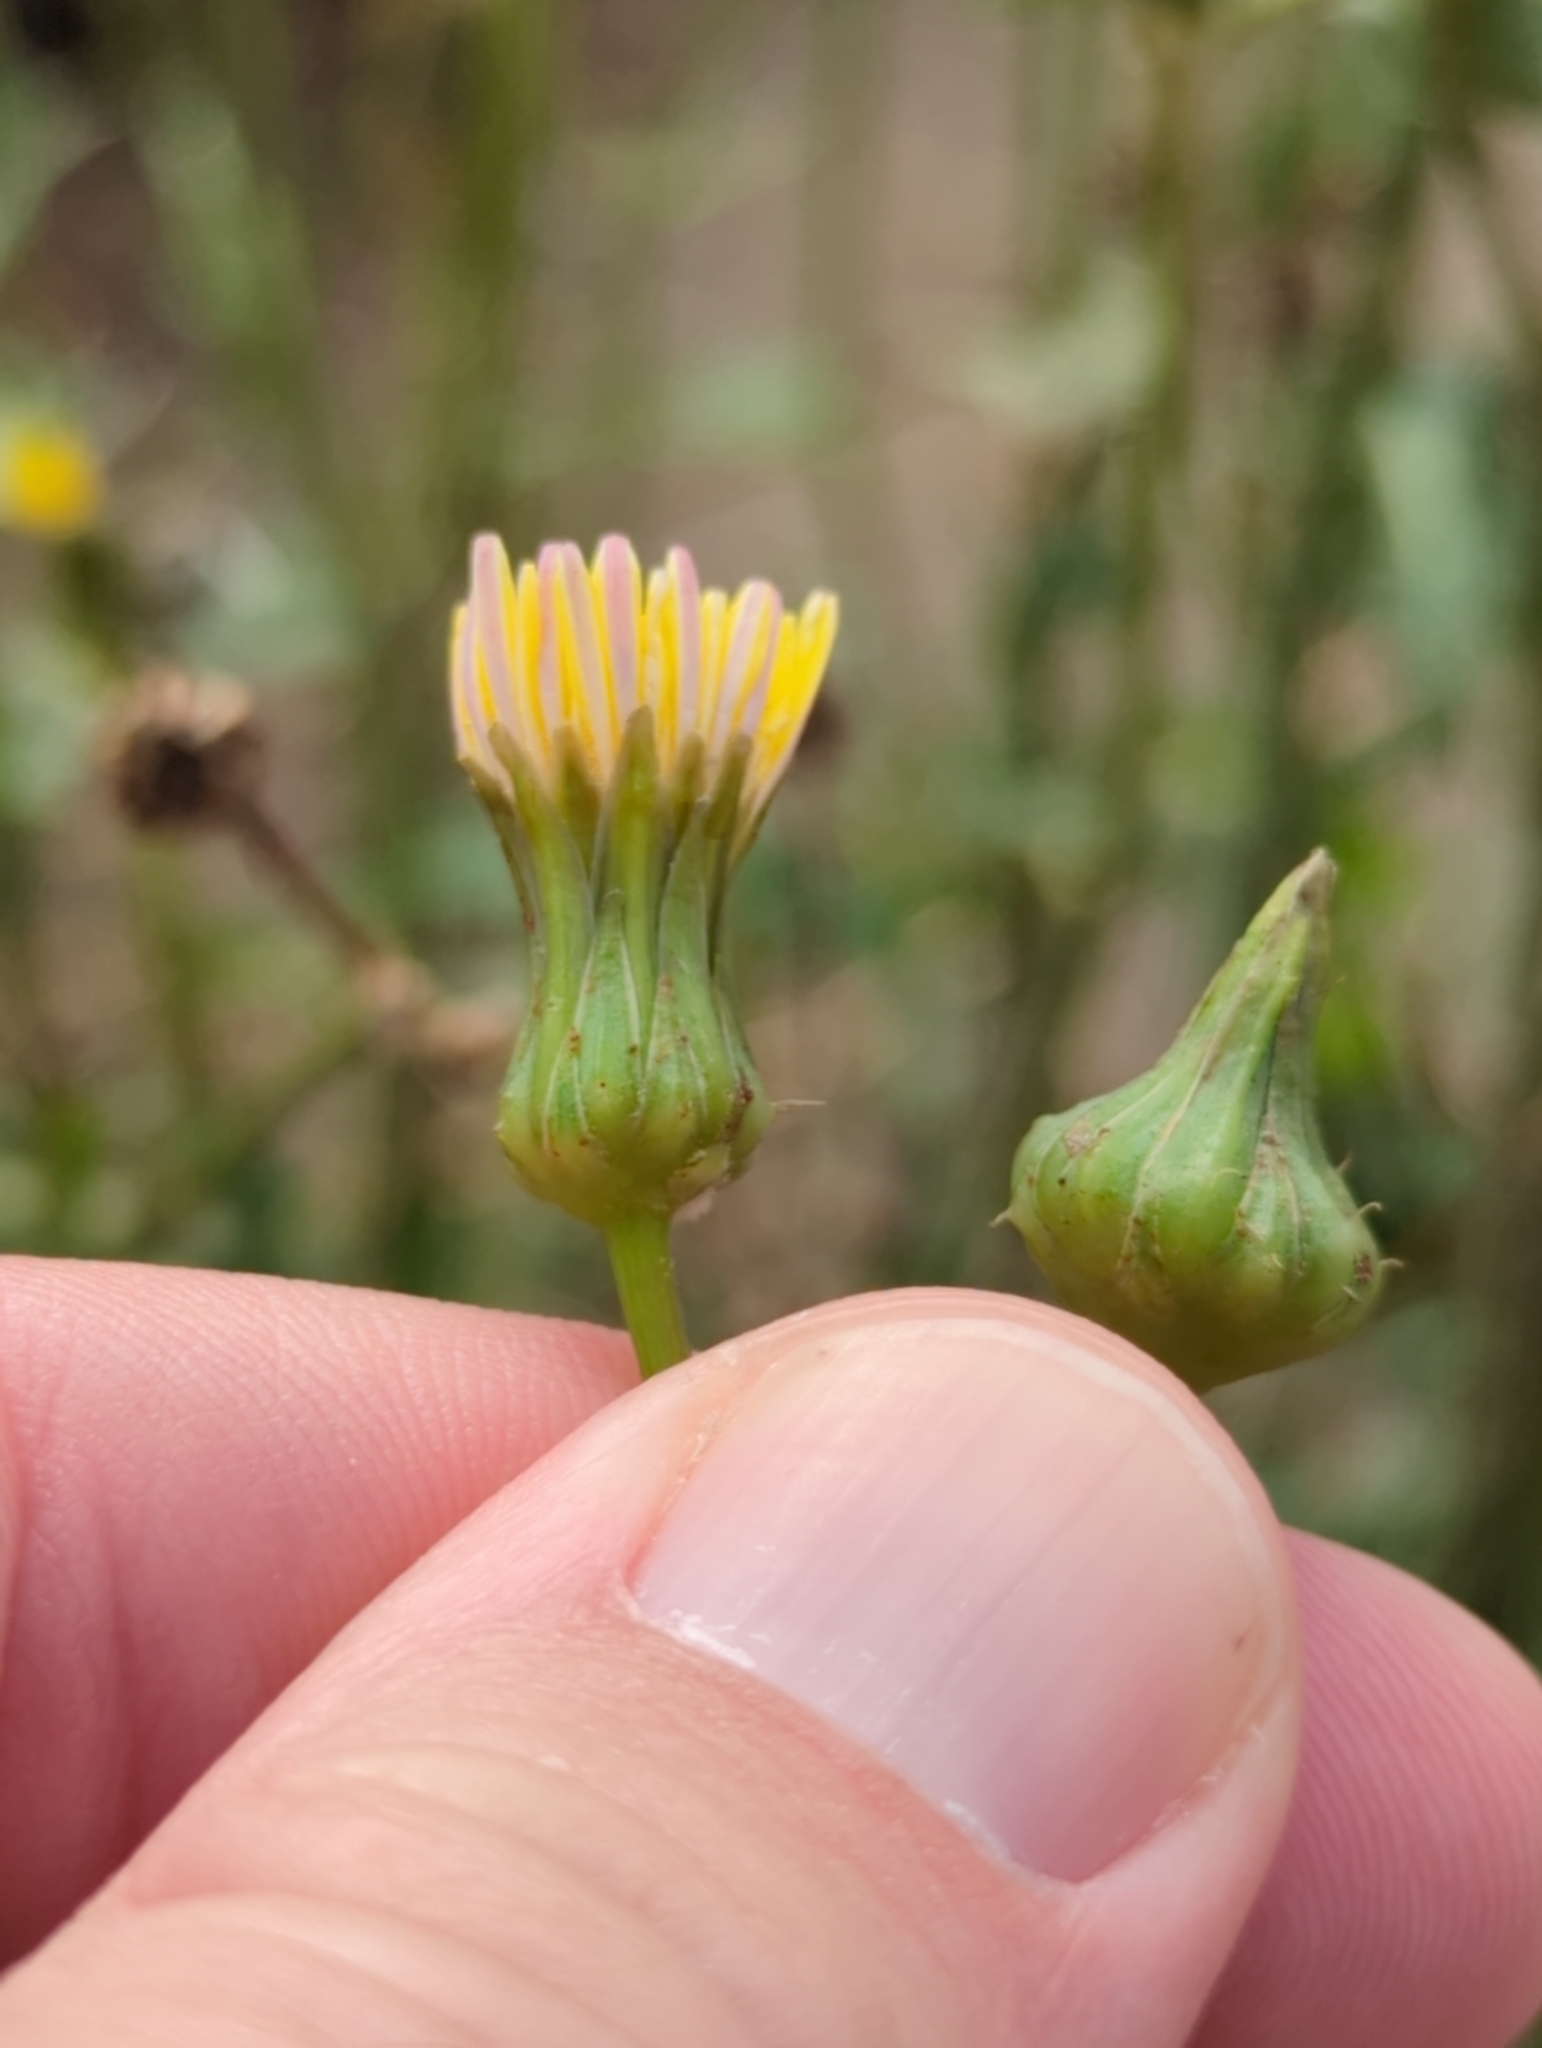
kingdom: Plantae
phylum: Tracheophyta
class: Magnoliopsida
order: Asterales
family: Asteraceae
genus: Sonchus
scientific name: Sonchus oleraceus
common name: Common sowthistle
